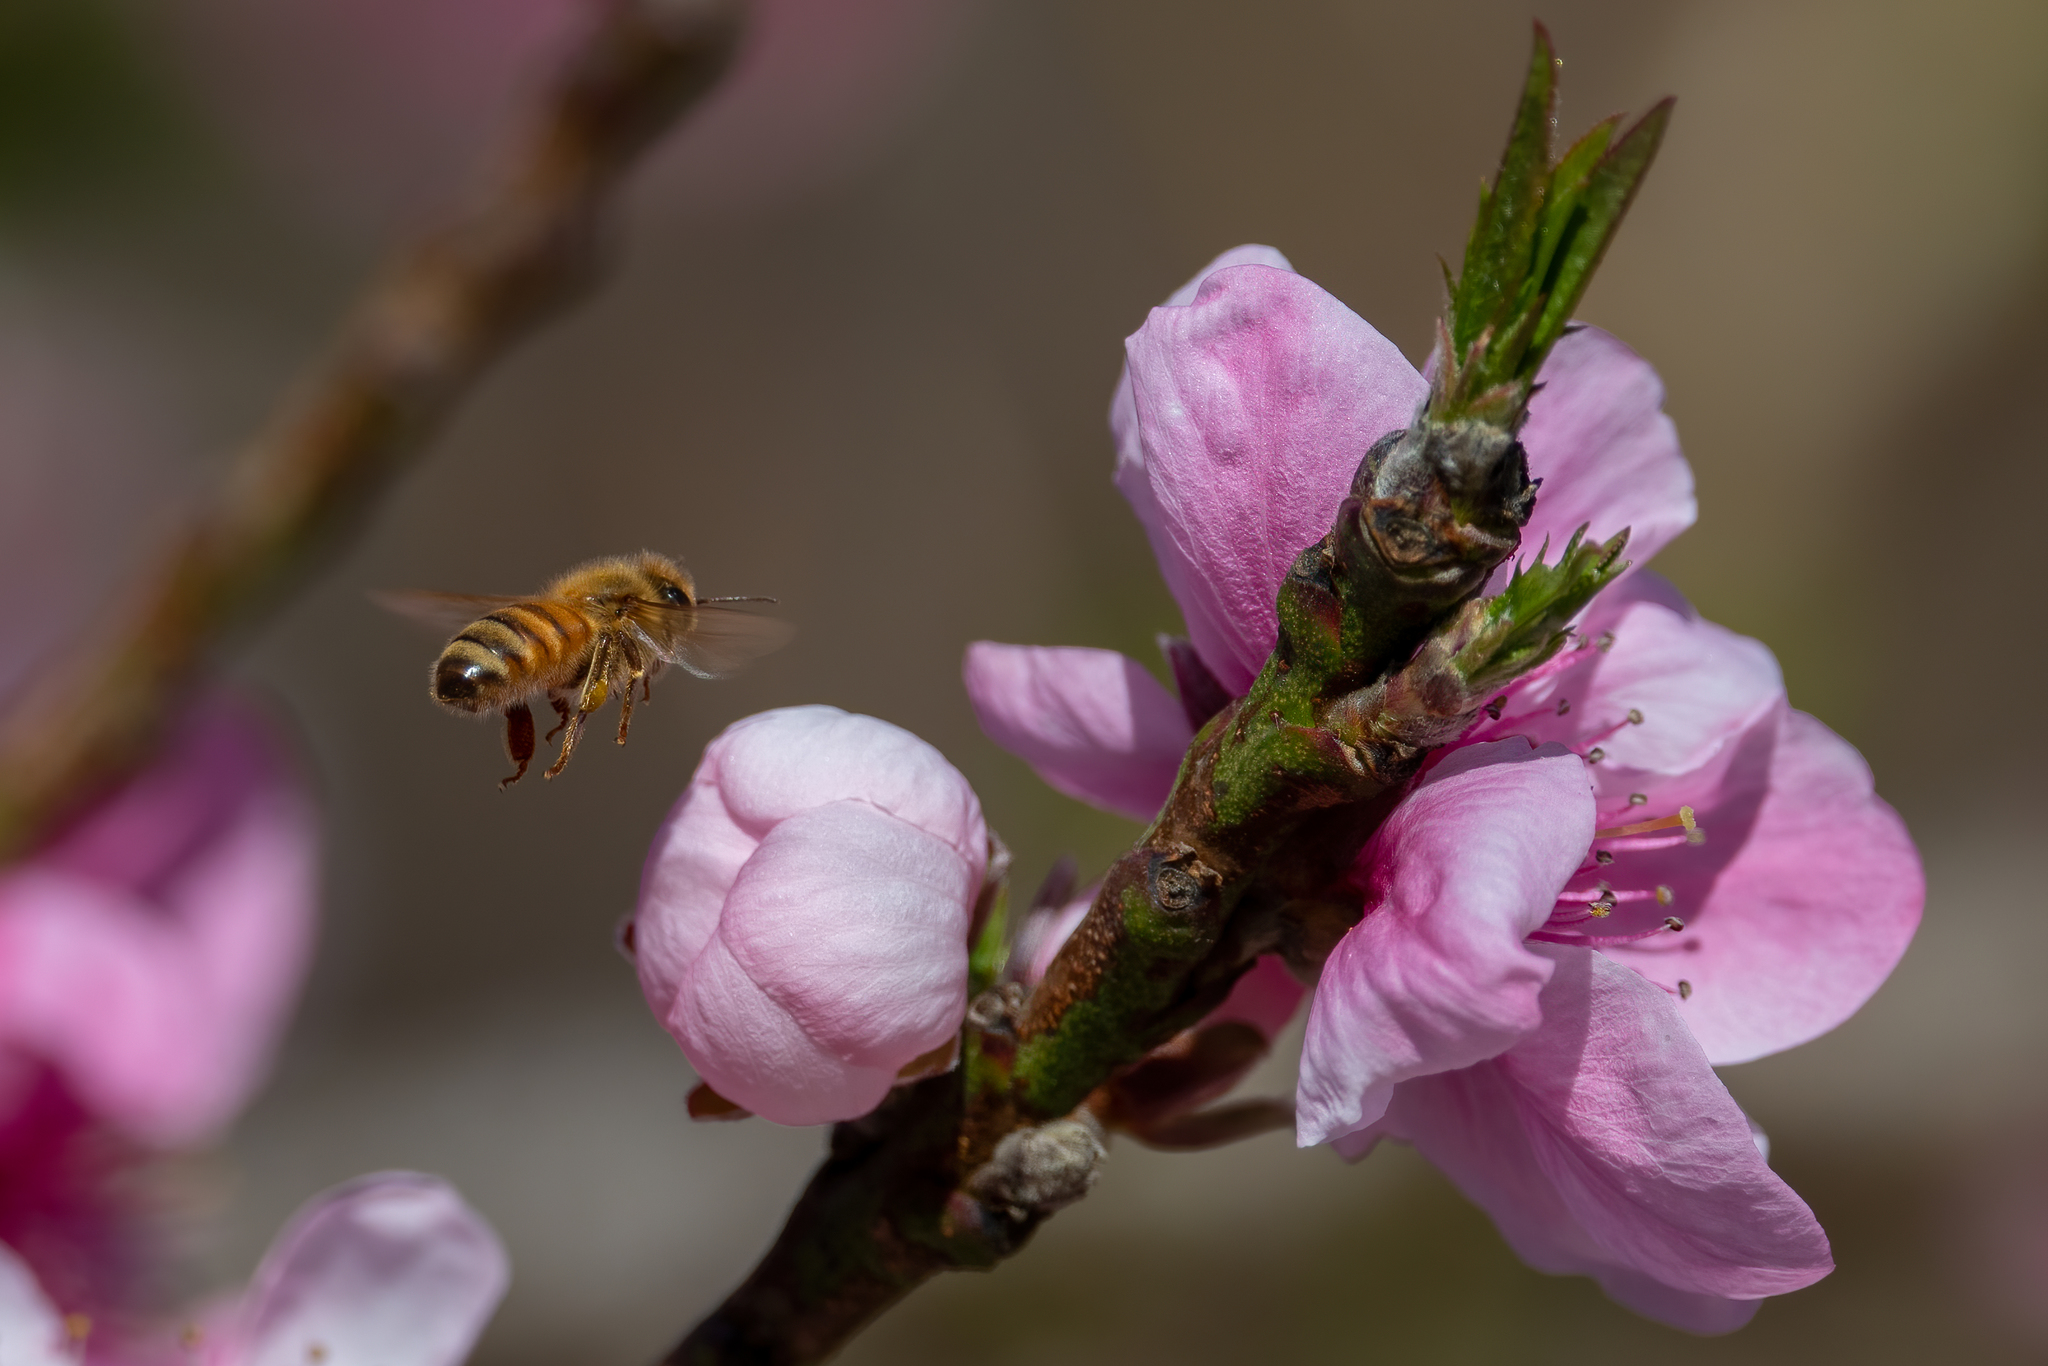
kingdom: Animalia
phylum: Arthropoda
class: Insecta
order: Hymenoptera
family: Apidae
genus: Apis
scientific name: Apis mellifera
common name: Honey bee
